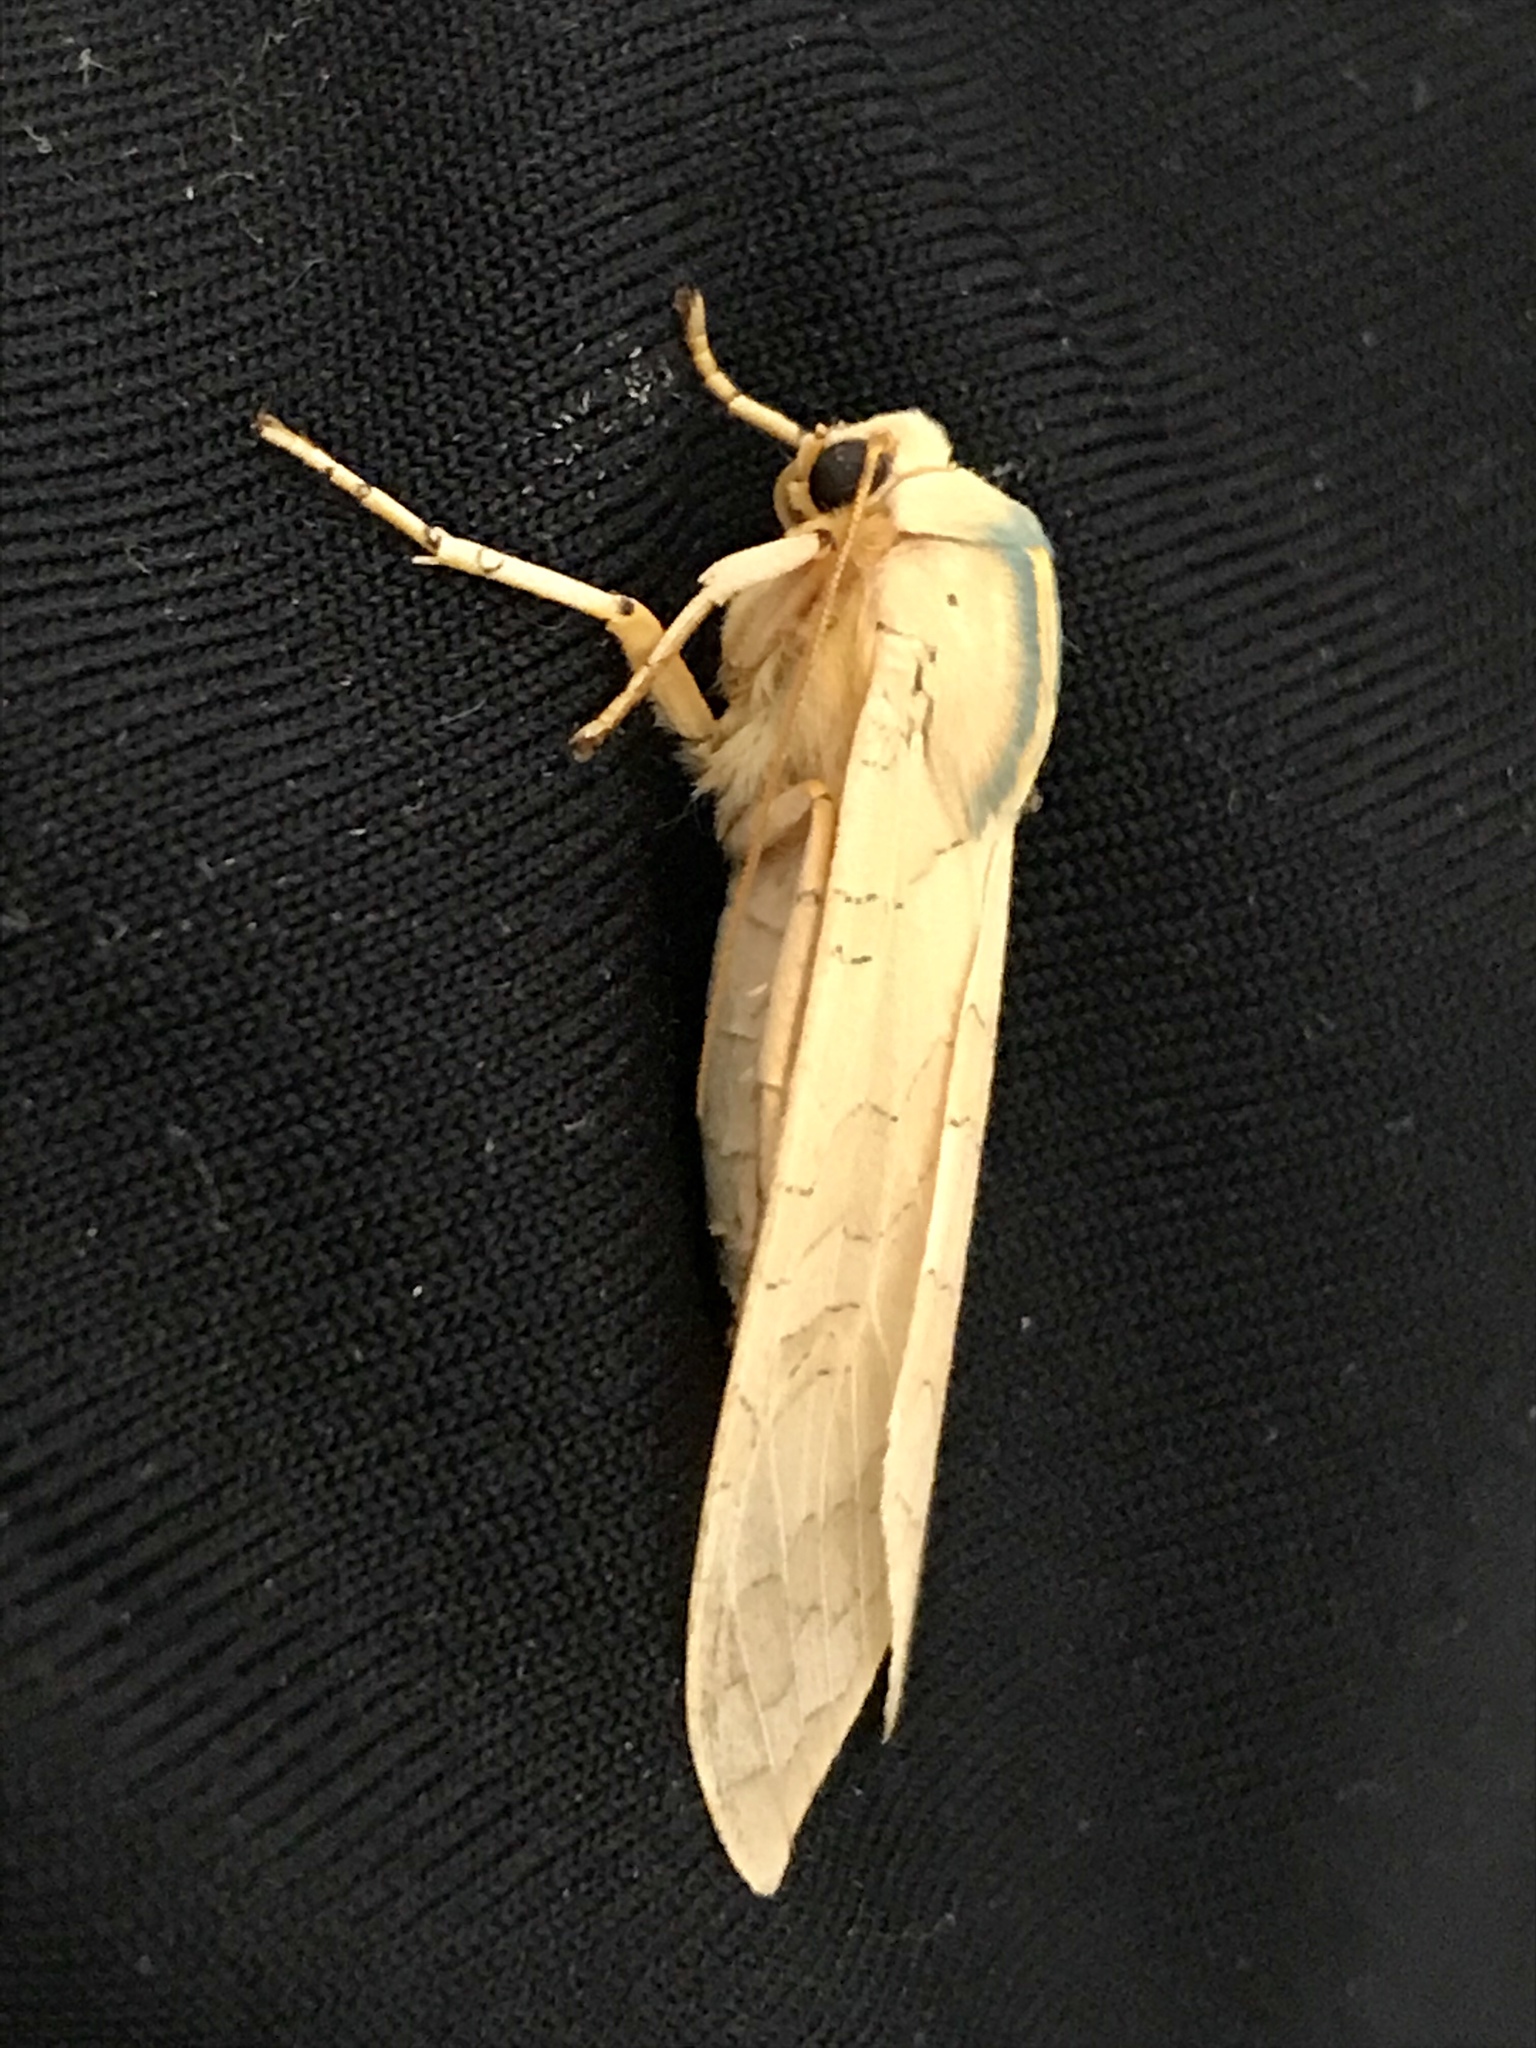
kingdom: Animalia
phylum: Arthropoda
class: Insecta
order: Lepidoptera
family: Erebidae
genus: Halysidota
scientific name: Halysidota
